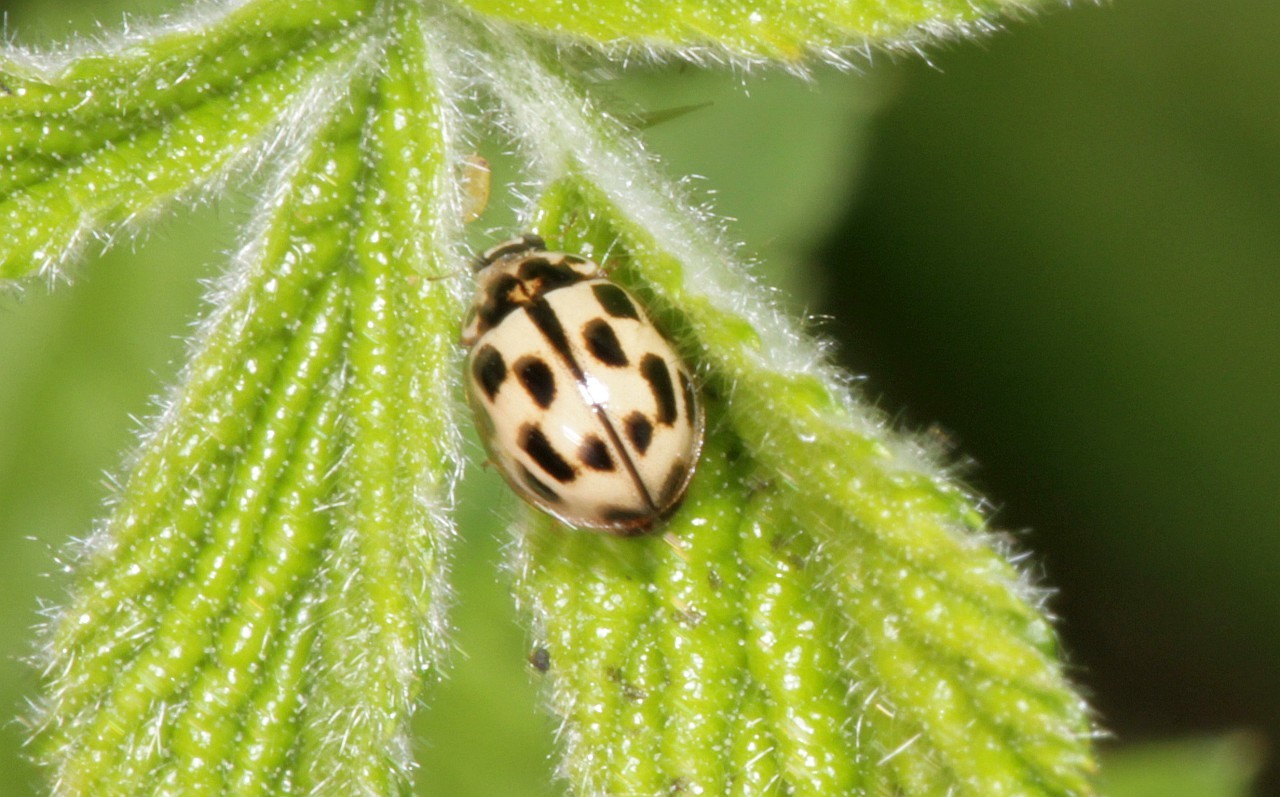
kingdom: Animalia
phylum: Arthropoda
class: Insecta
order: Coleoptera
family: Coccinellidae
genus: Propylaea
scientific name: Propylaea quatuordecimpunctata
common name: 14-spotted ladybird beetle
